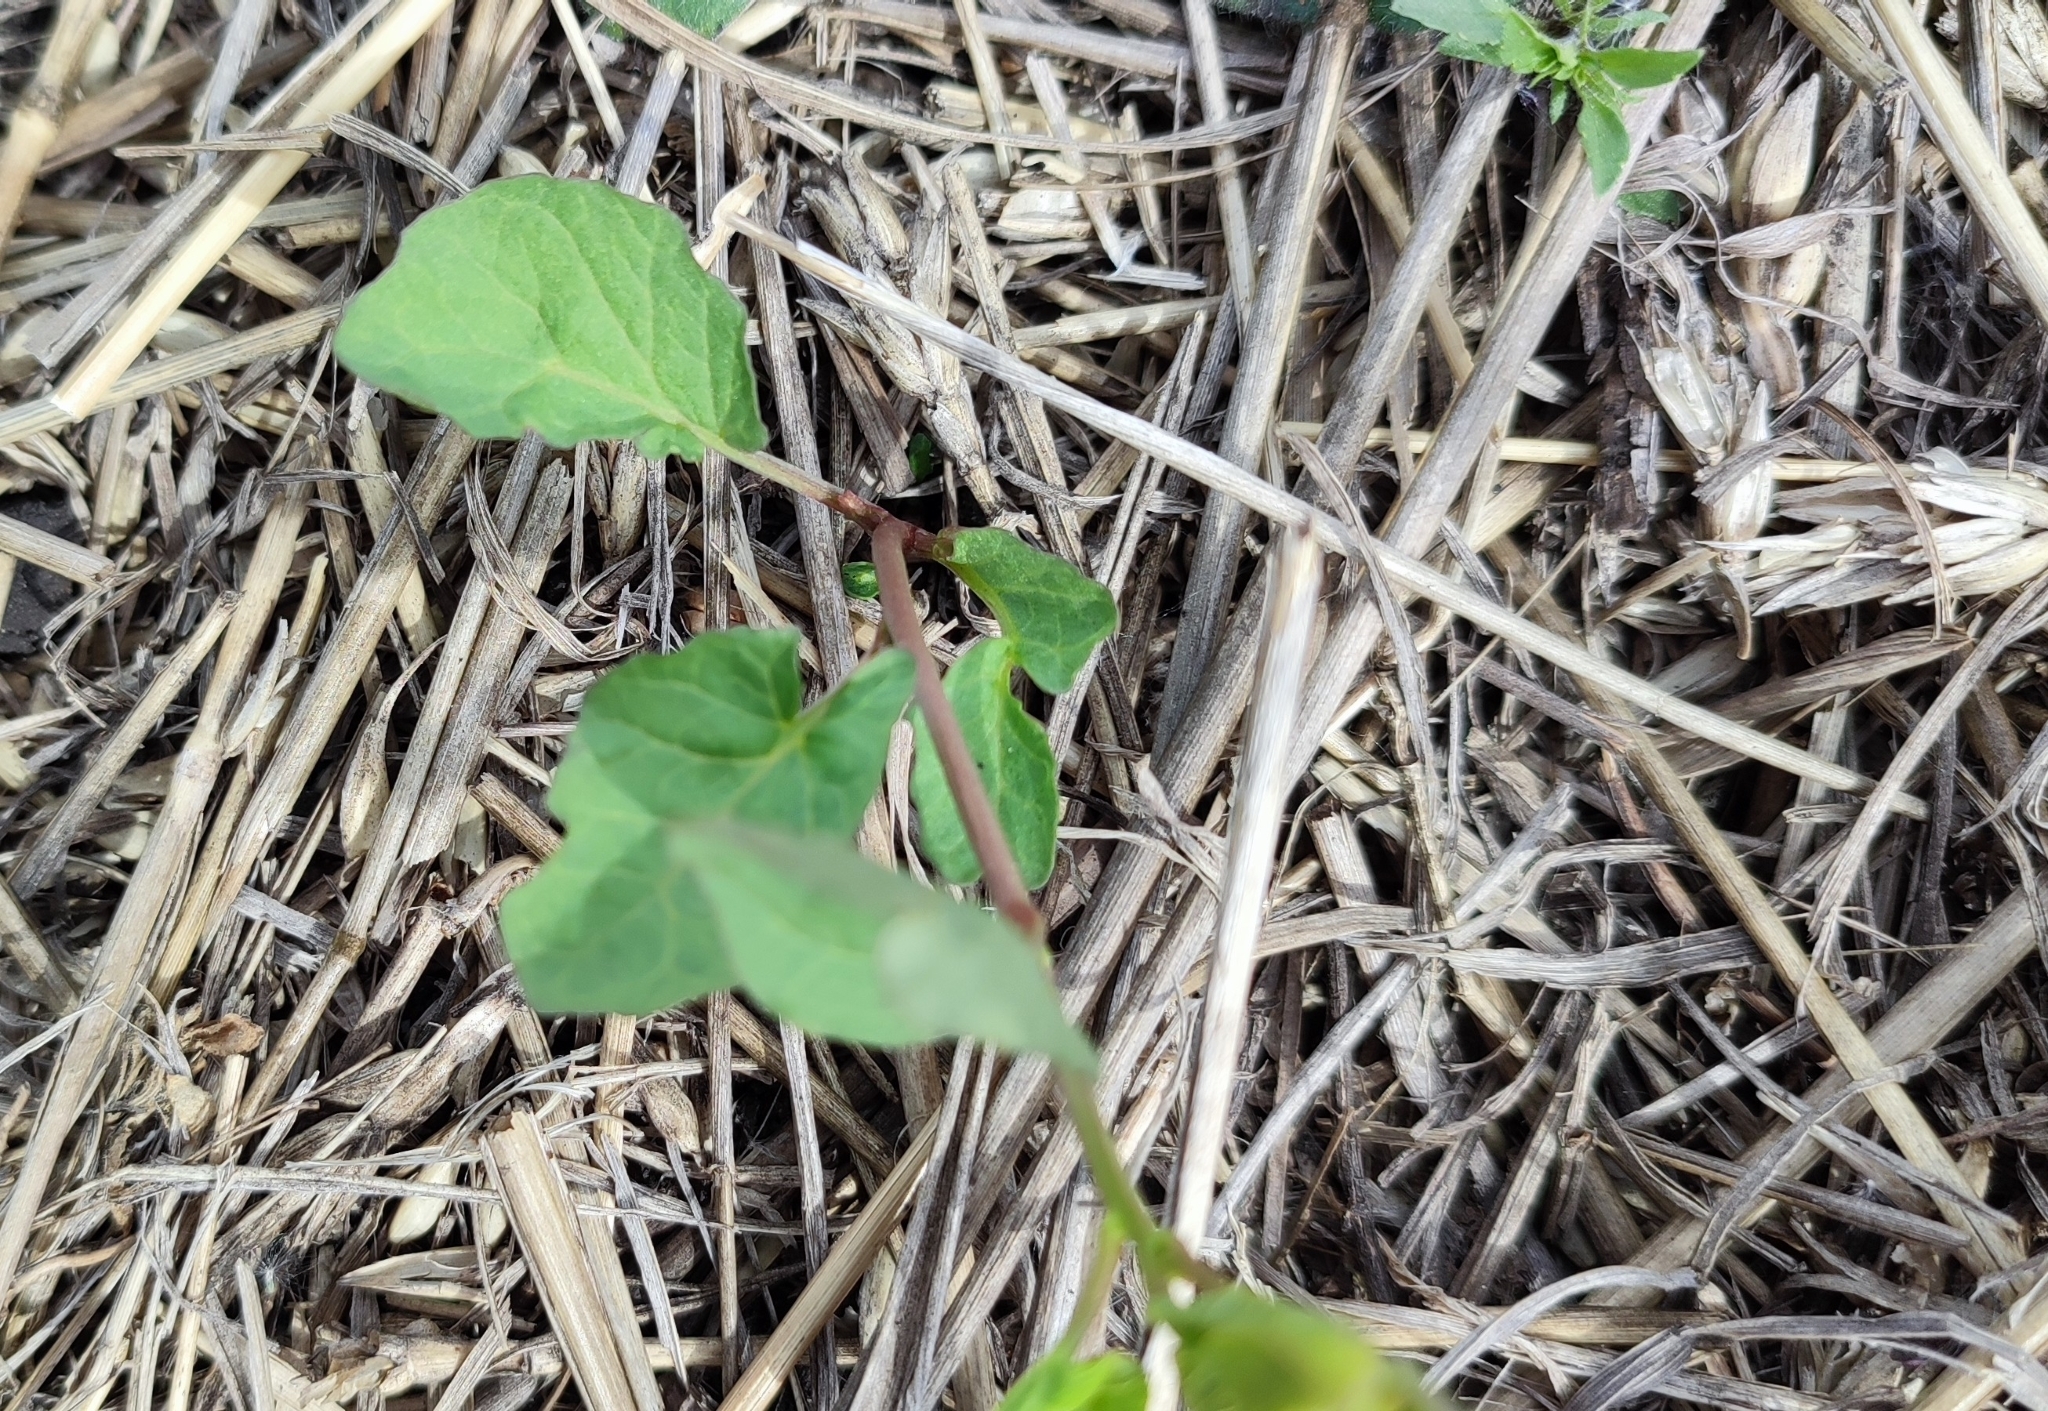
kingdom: Plantae
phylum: Tracheophyta
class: Magnoliopsida
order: Solanales
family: Convolvulaceae
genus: Convolvulus
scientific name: Convolvulus arvensis
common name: Field bindweed
